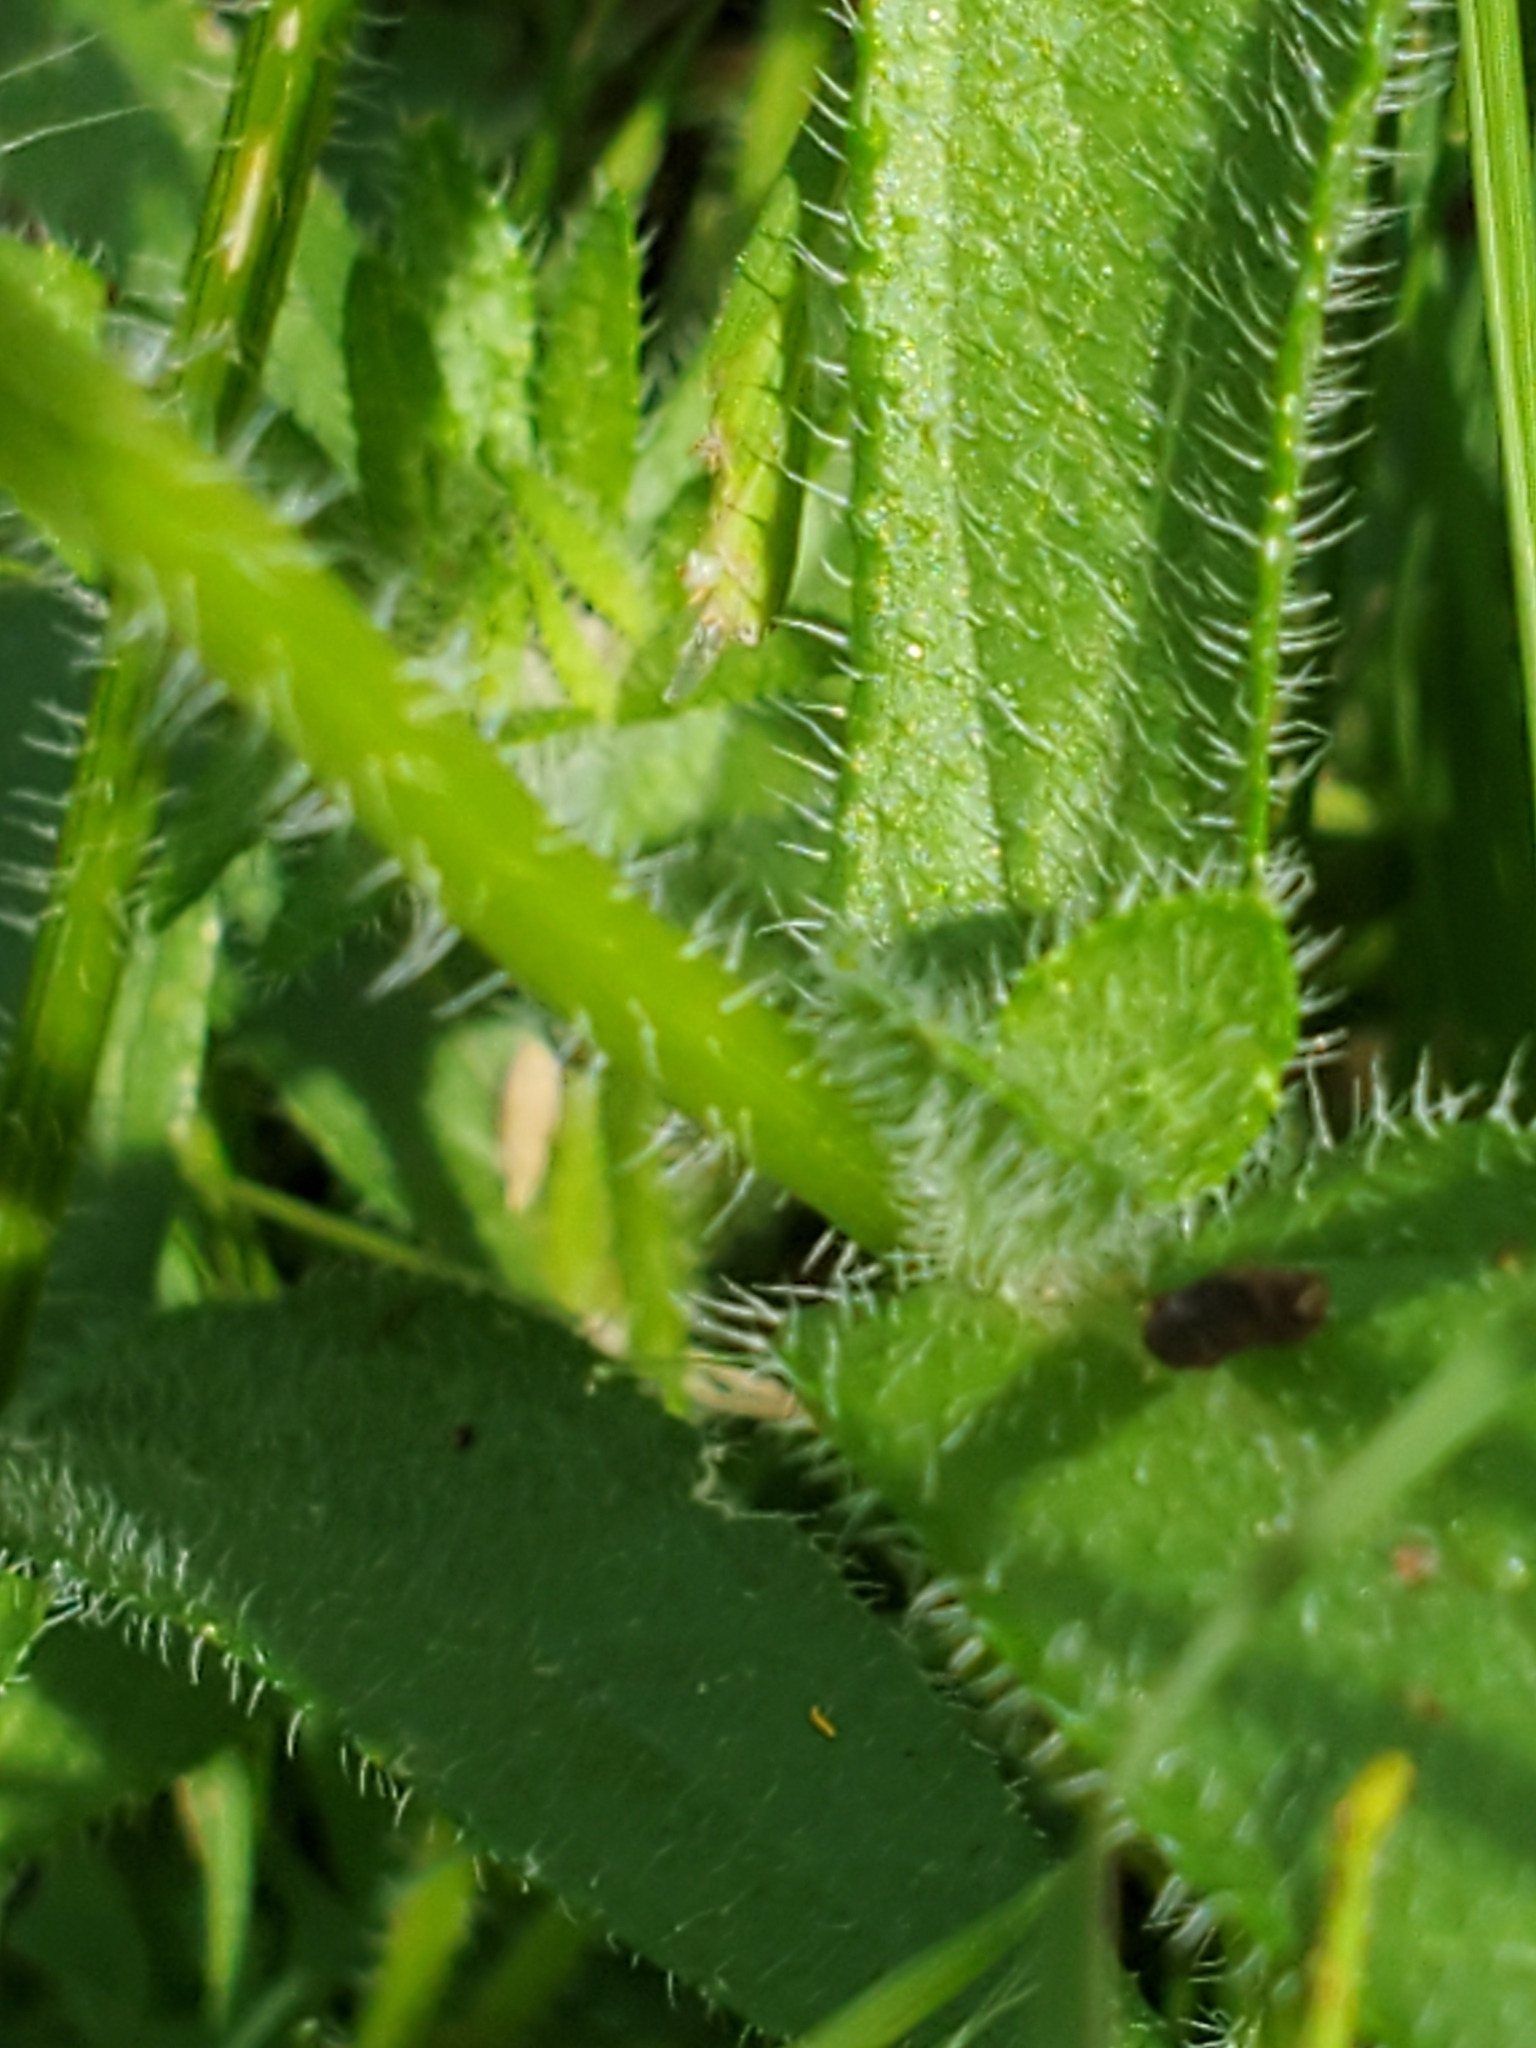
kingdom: Plantae
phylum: Tracheophyta
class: Magnoliopsida
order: Asterales
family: Asteraceae
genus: Rudbeckia
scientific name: Rudbeckia hirta
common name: Black-eyed-susan
